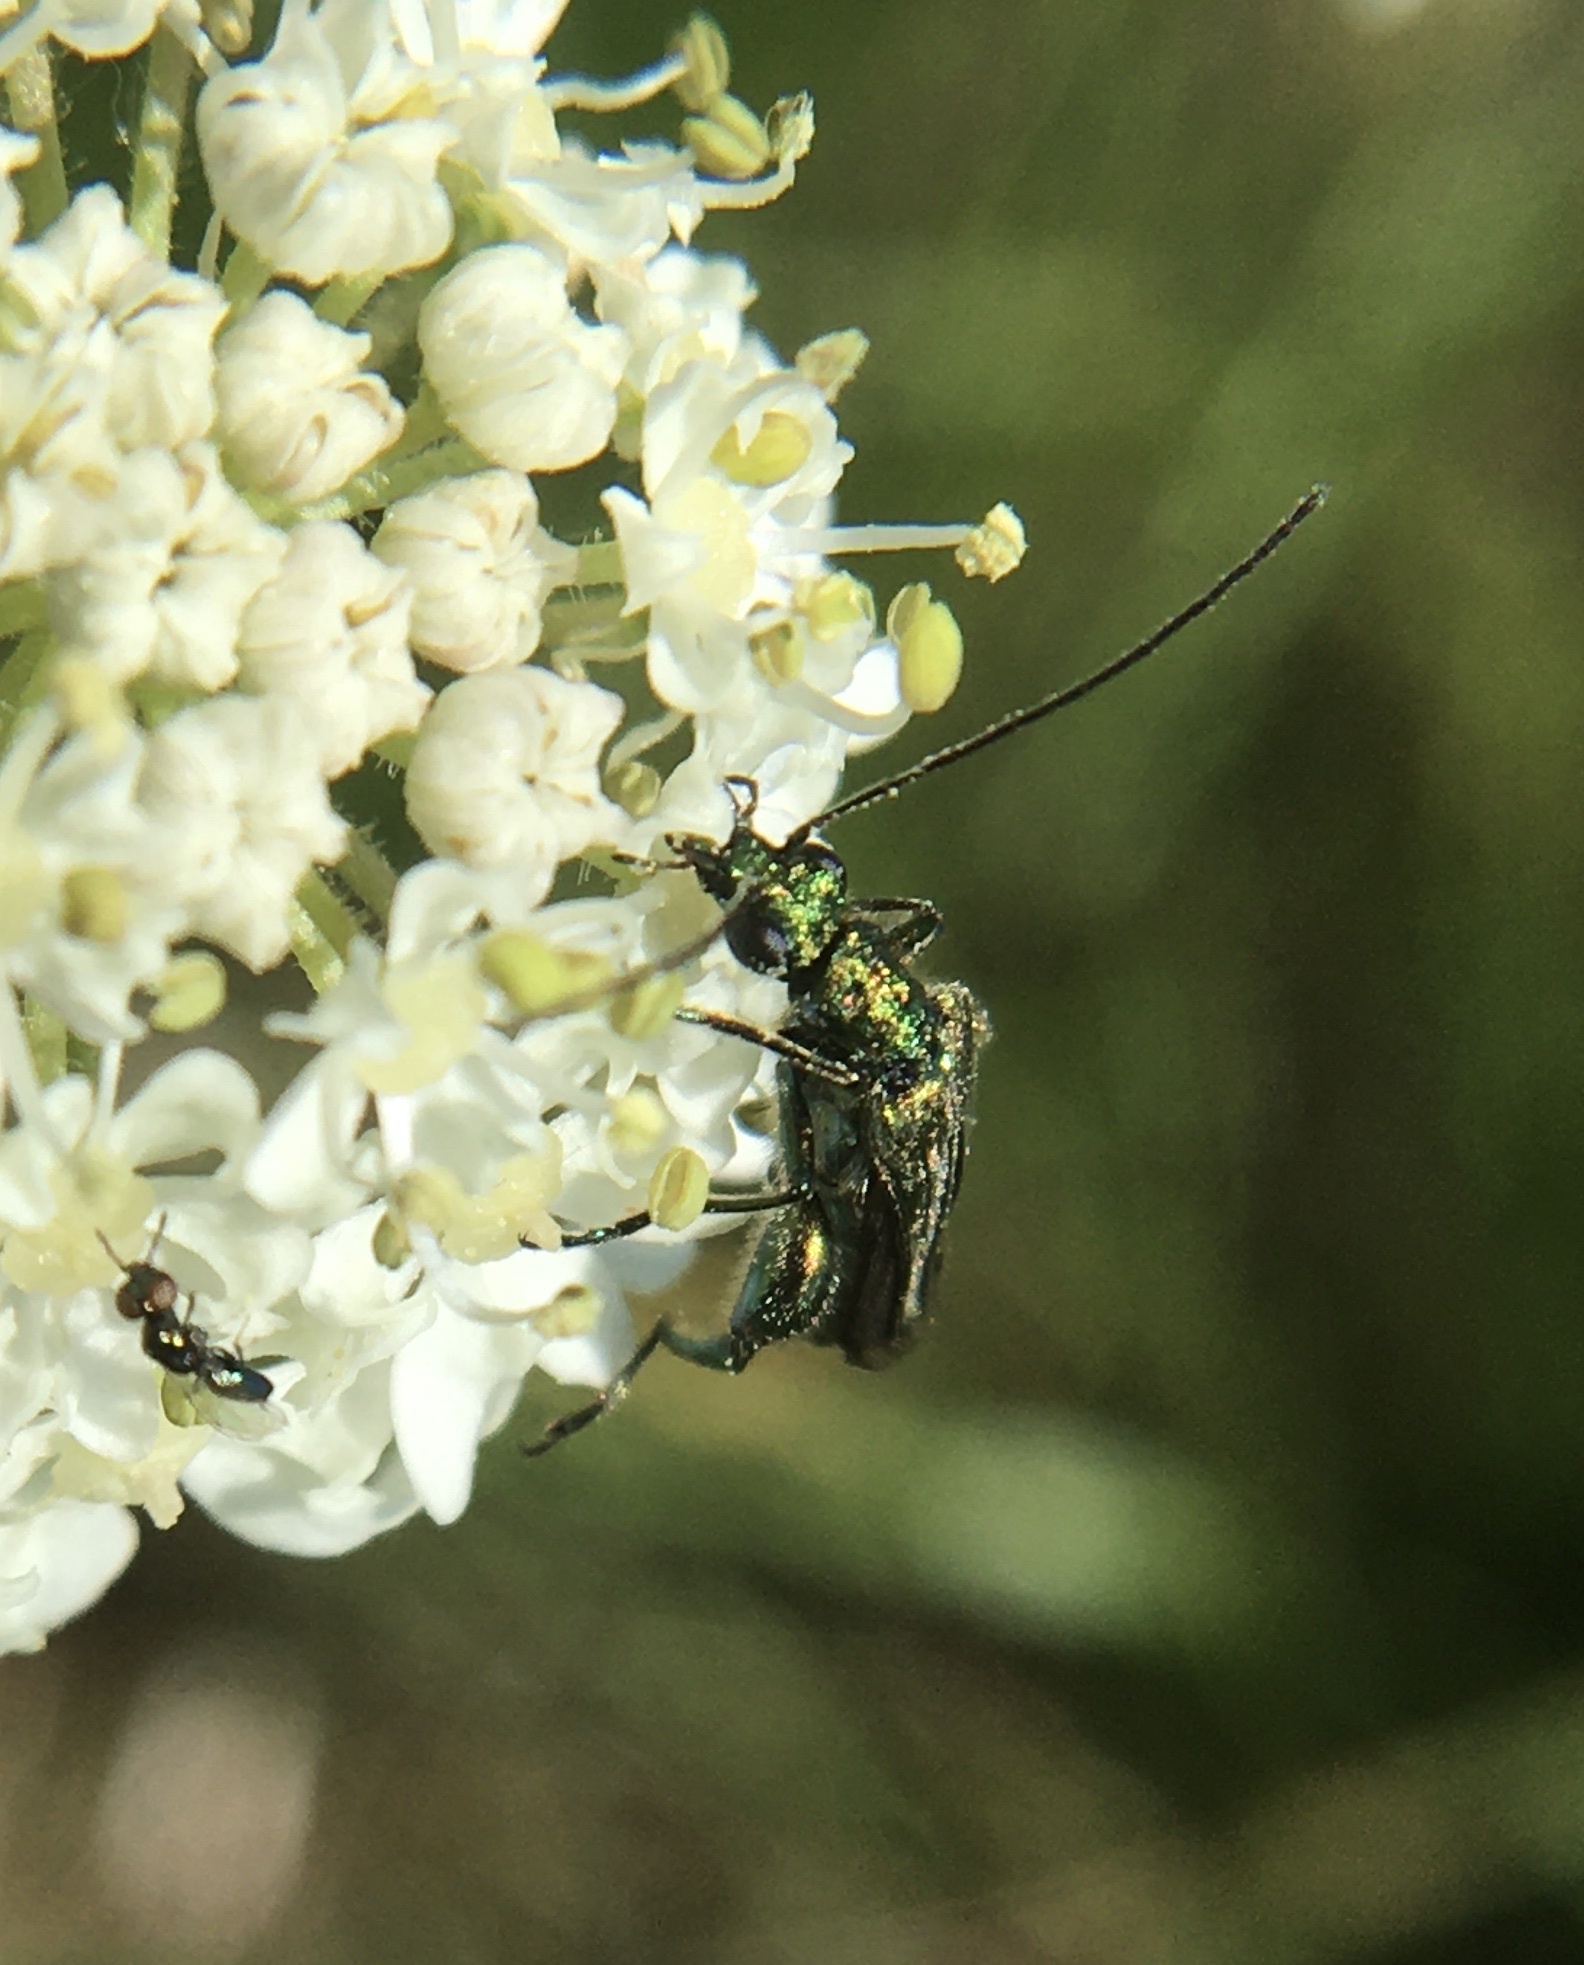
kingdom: Animalia
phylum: Arthropoda
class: Insecta
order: Coleoptera
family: Oedemeridae
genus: Oedemera
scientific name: Oedemera nobilis
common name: Swollen-thighed beetle
